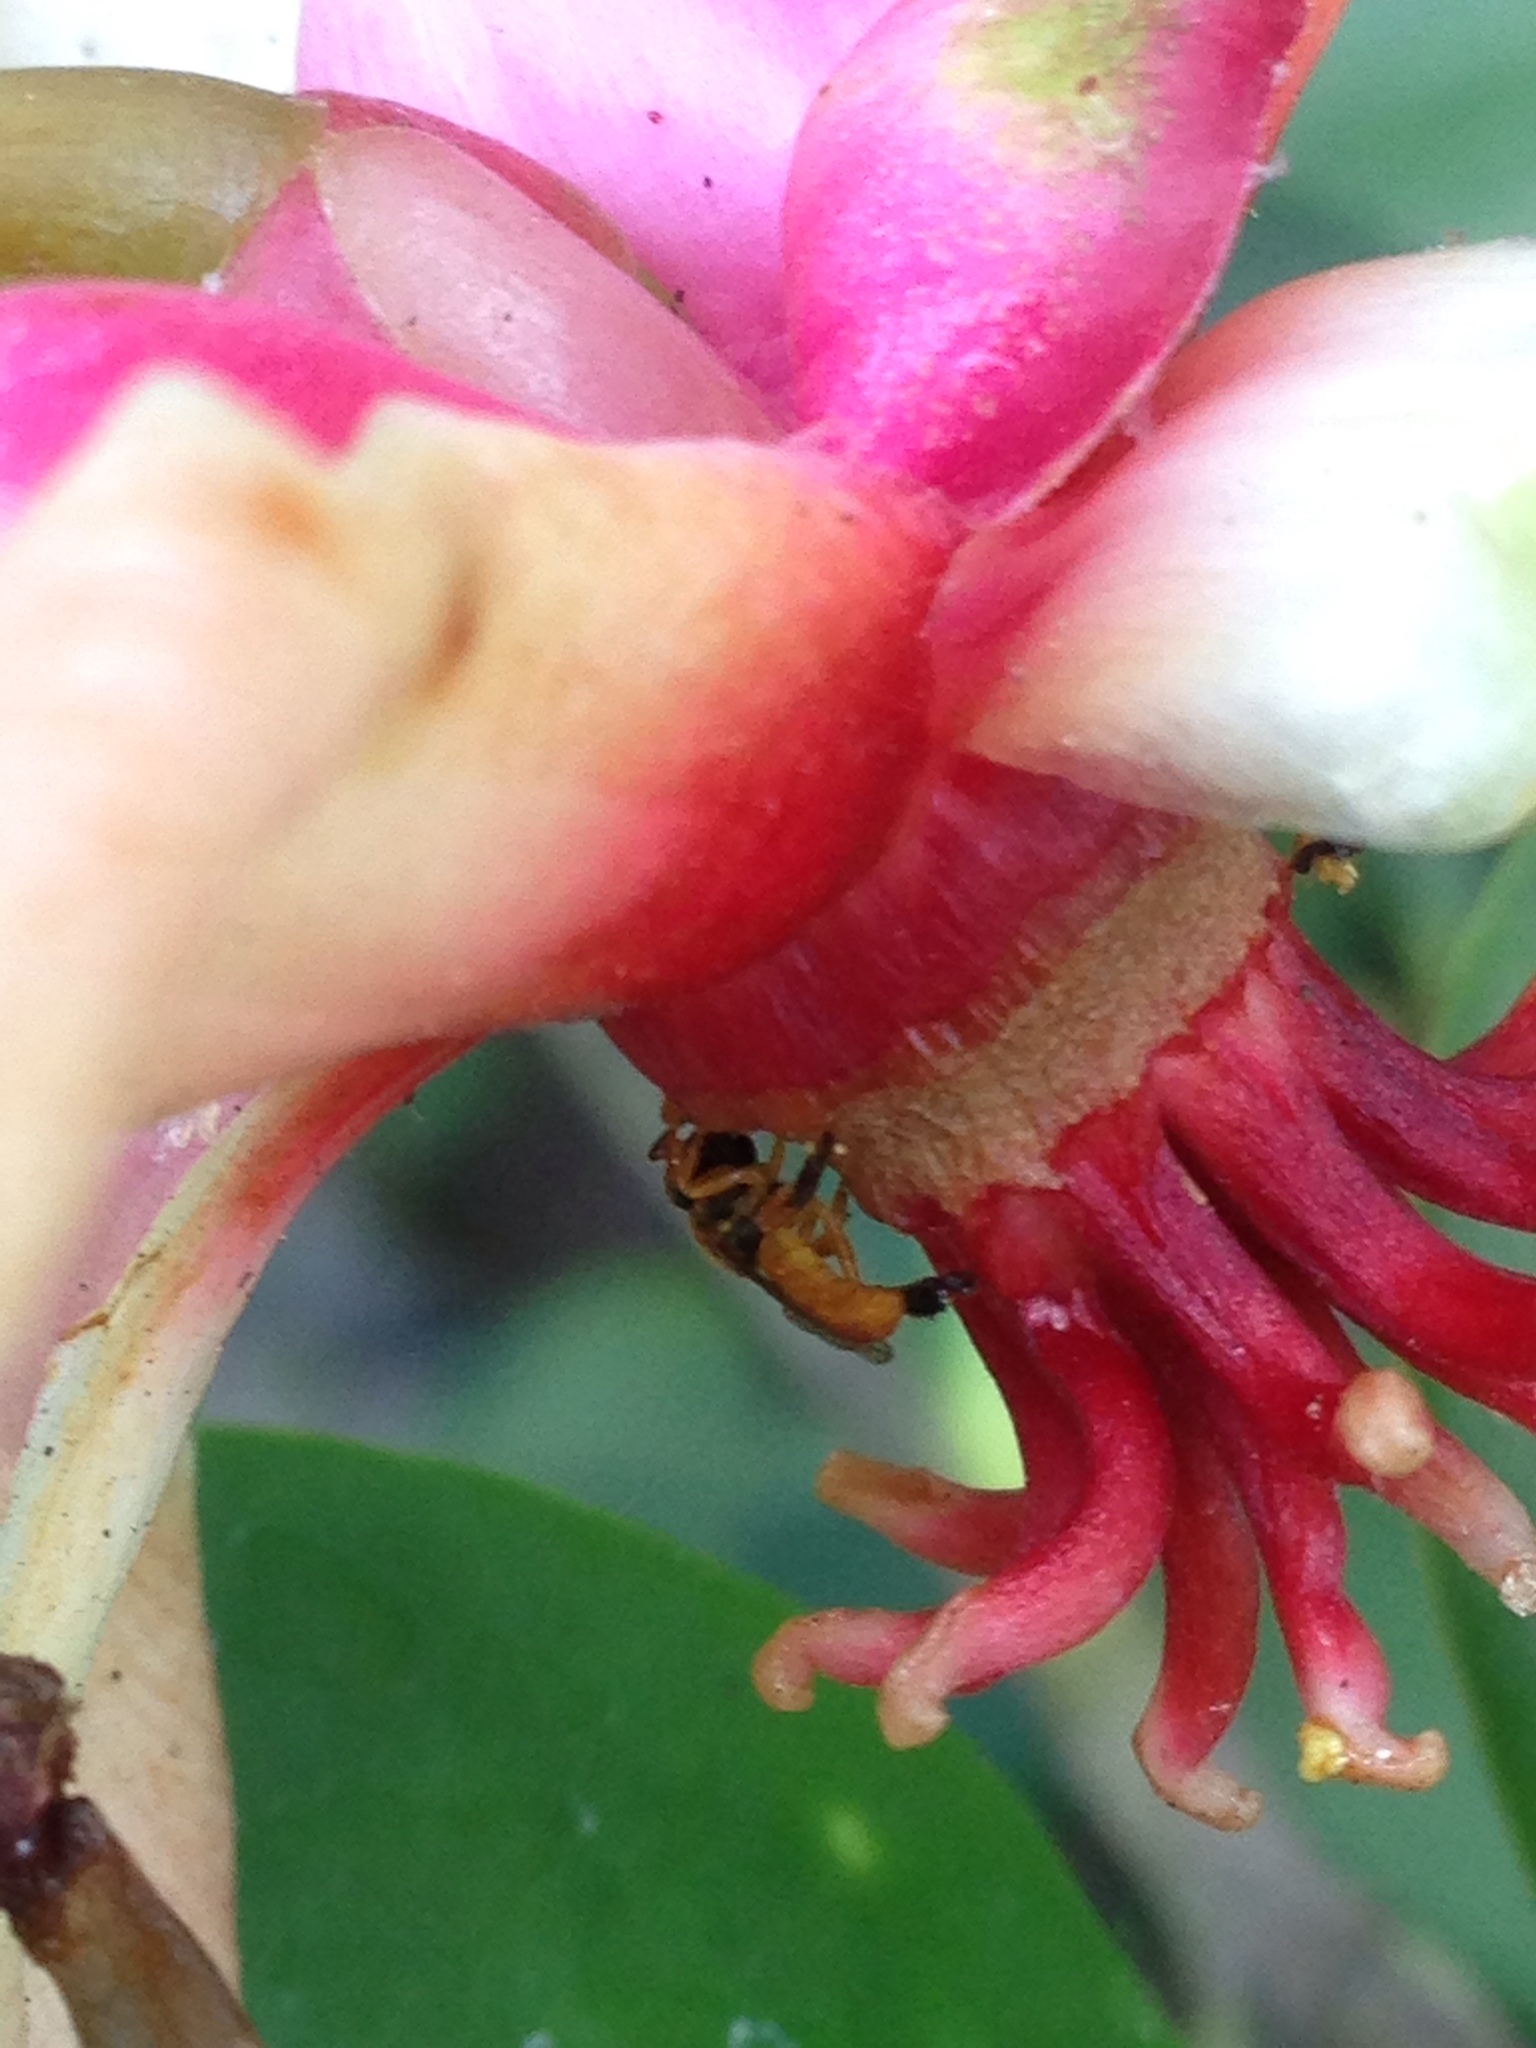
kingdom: Animalia
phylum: Arthropoda
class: Insecta
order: Hymenoptera
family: Apidae
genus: Tetragonisca
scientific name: Tetragonisca angustula
